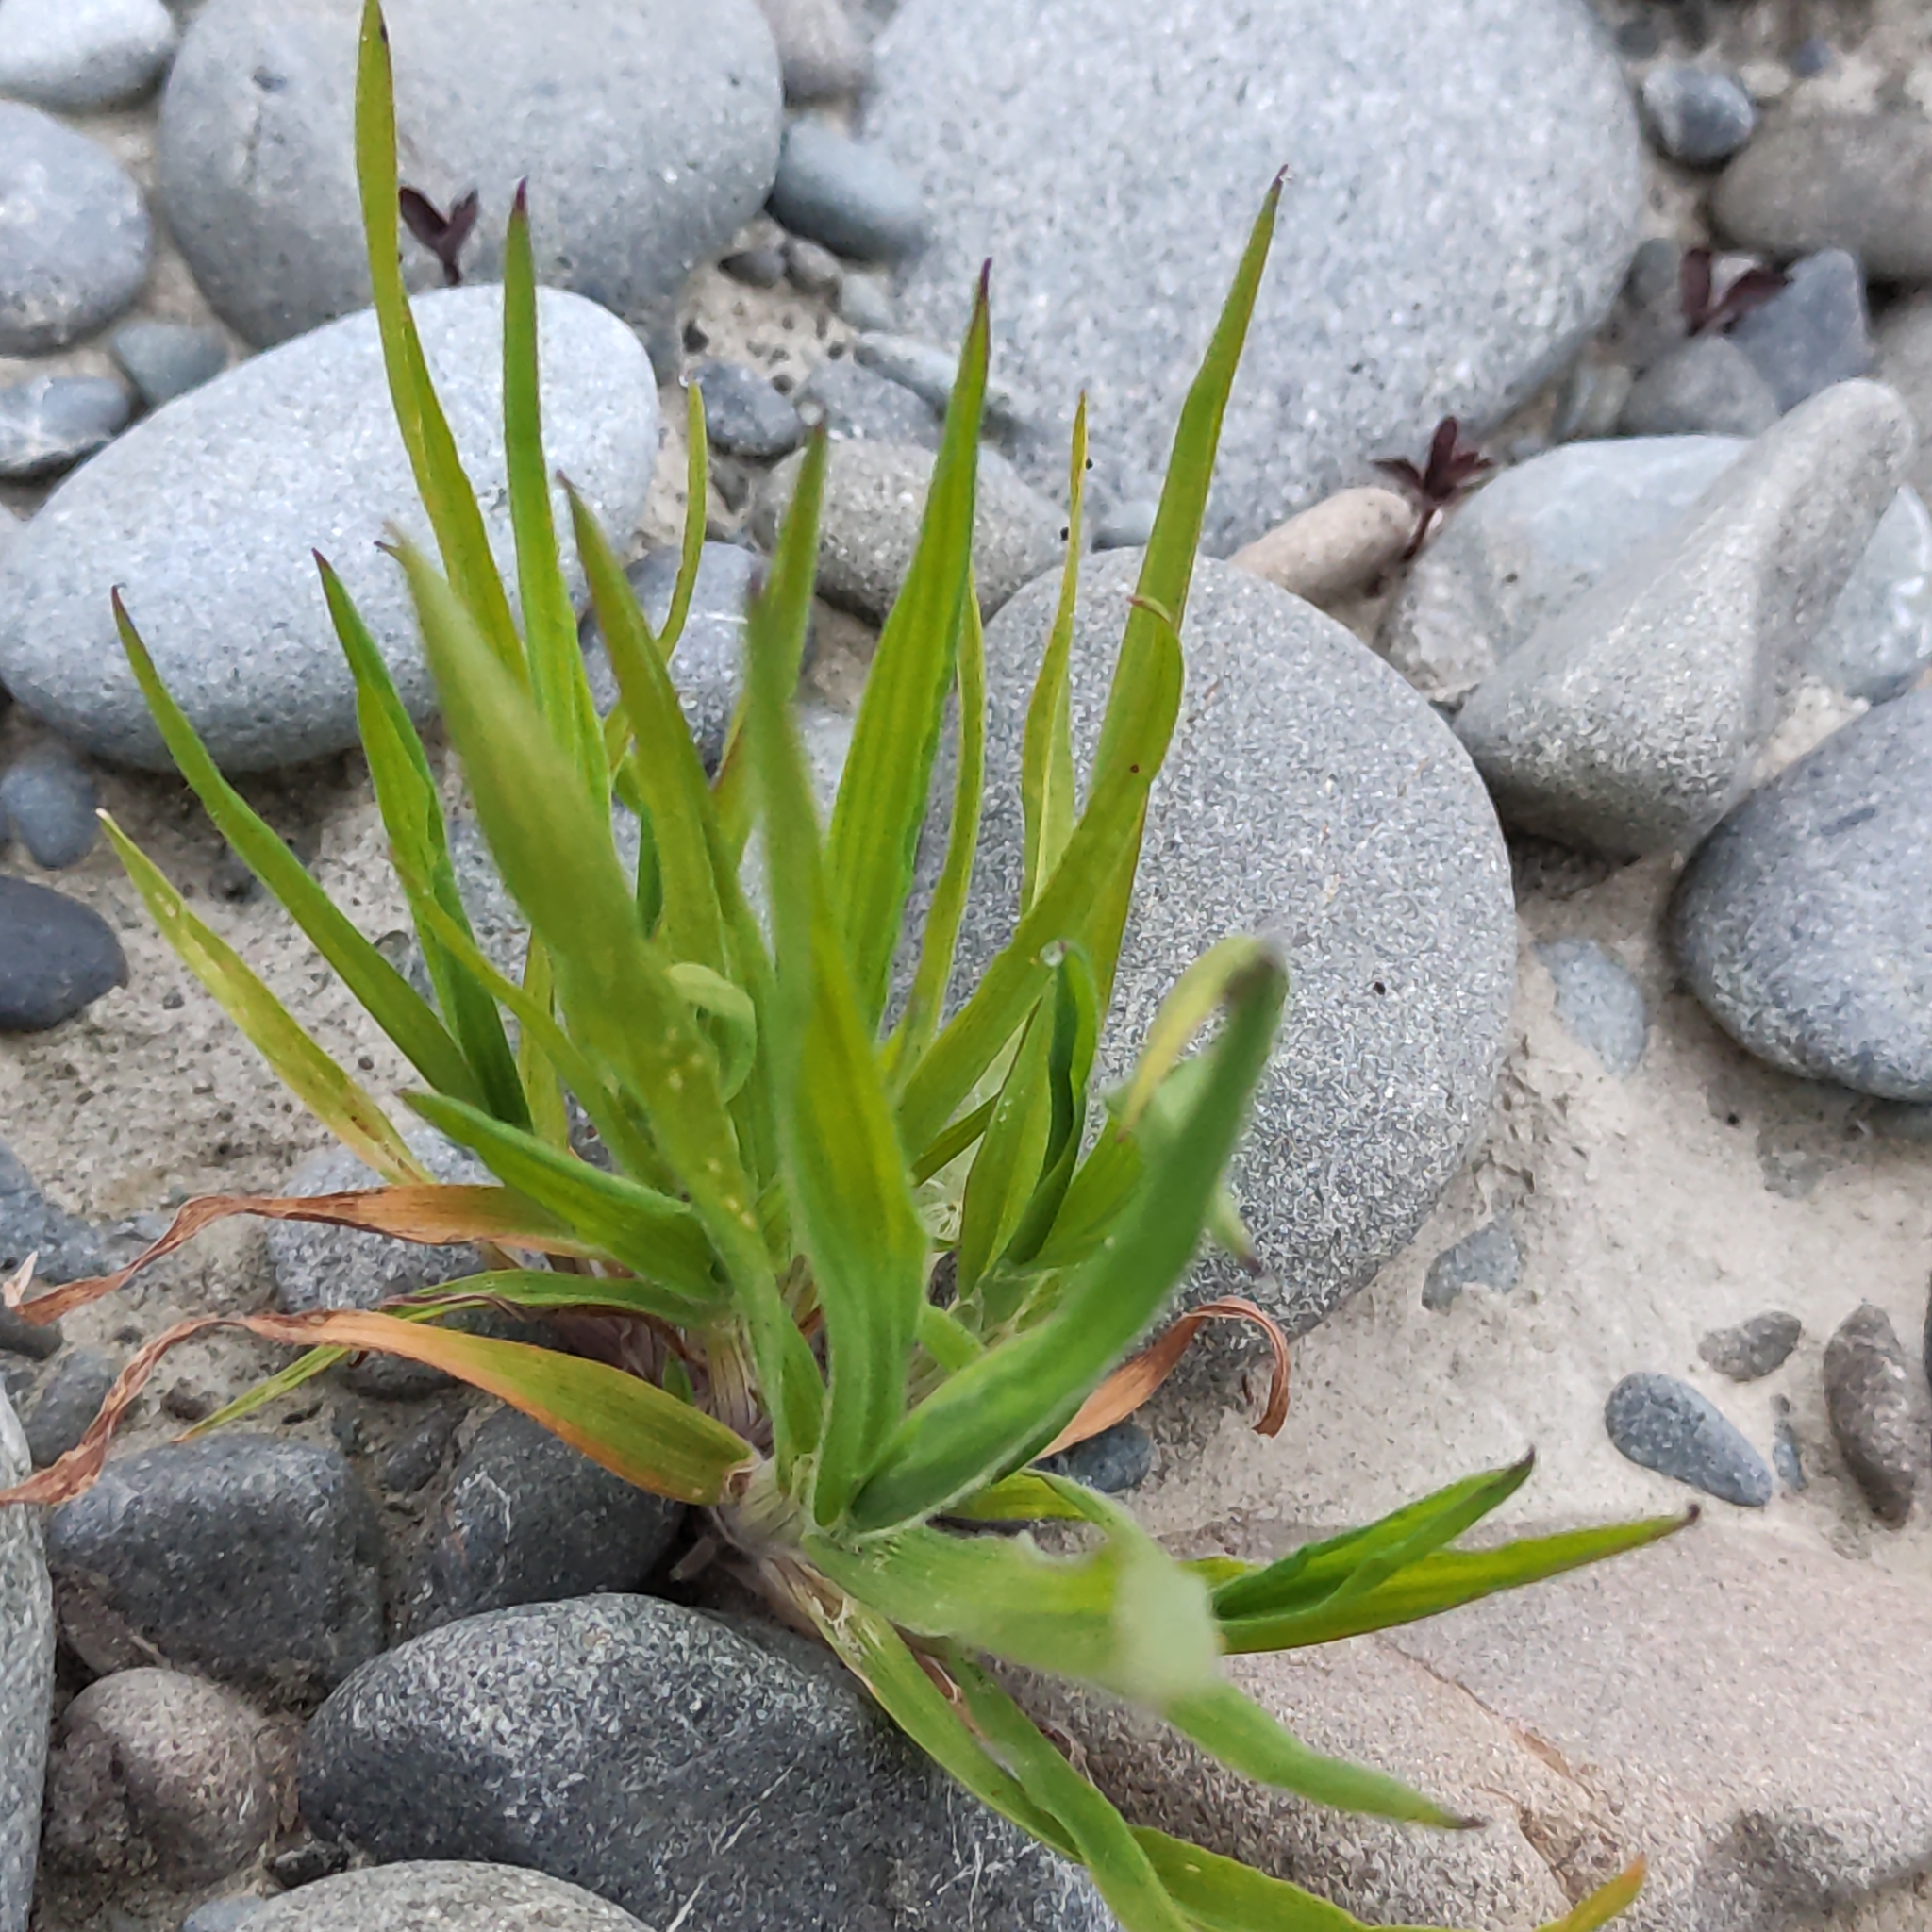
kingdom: Plantae
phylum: Tracheophyta
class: Liliopsida
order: Poales
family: Poaceae
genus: Holcus
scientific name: Holcus lanatus
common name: Yorkshire-fog
